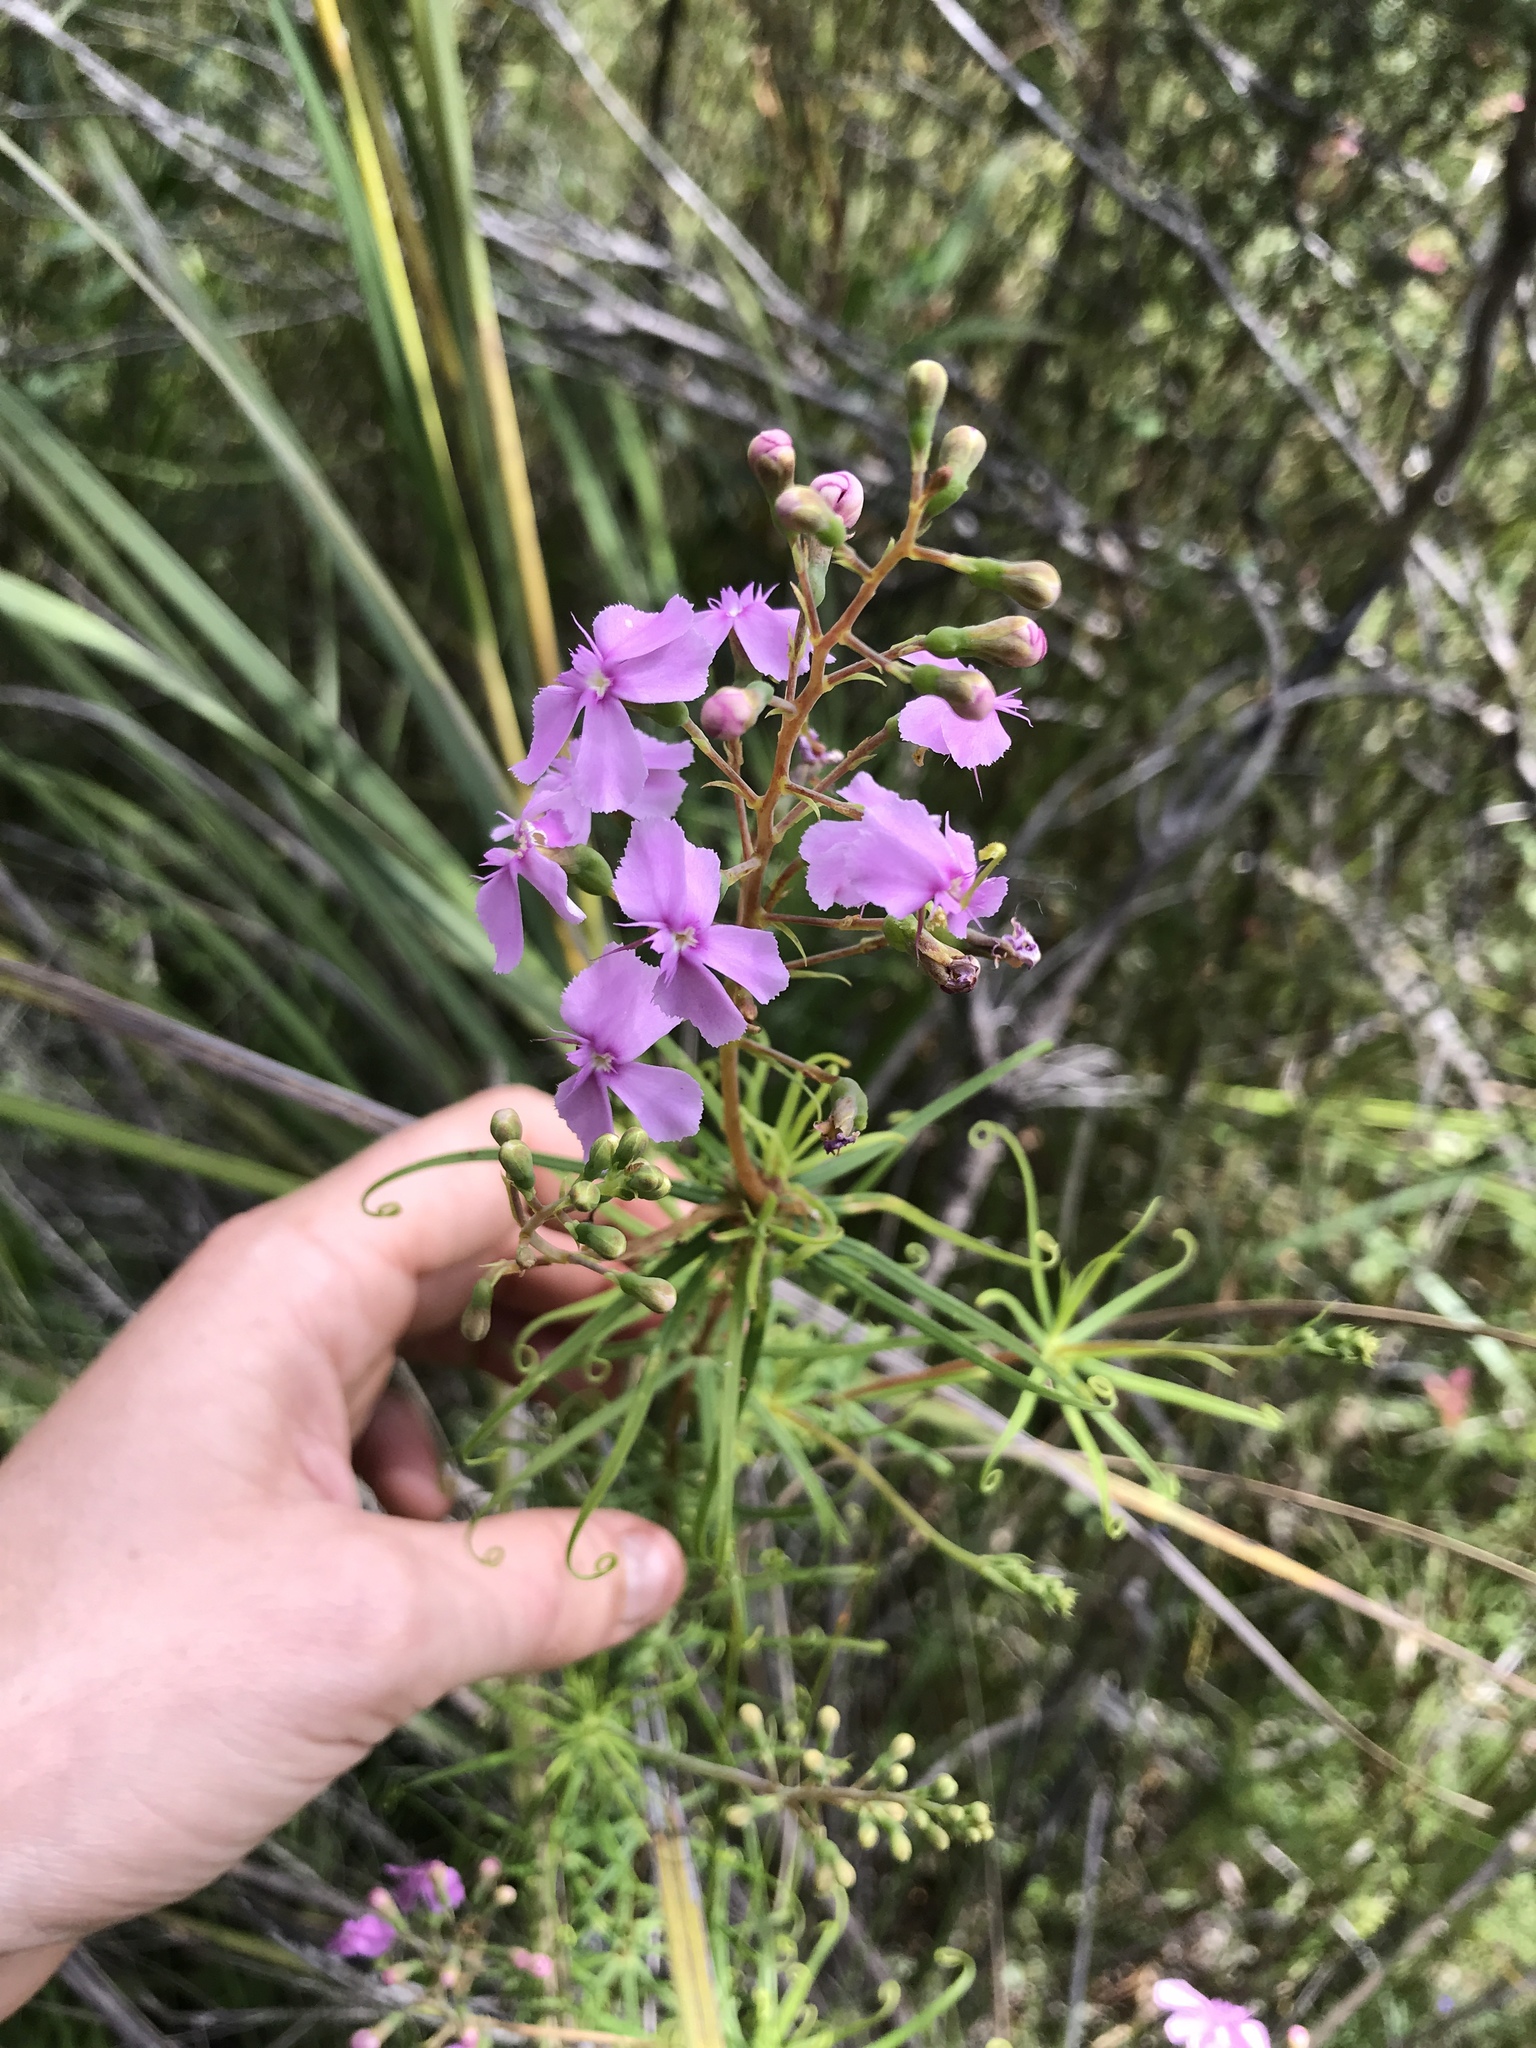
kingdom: Plantae
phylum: Tracheophyta
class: Magnoliopsida
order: Asterales
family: Stylidiaceae
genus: Stylidium
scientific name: Stylidium nymphaeum
